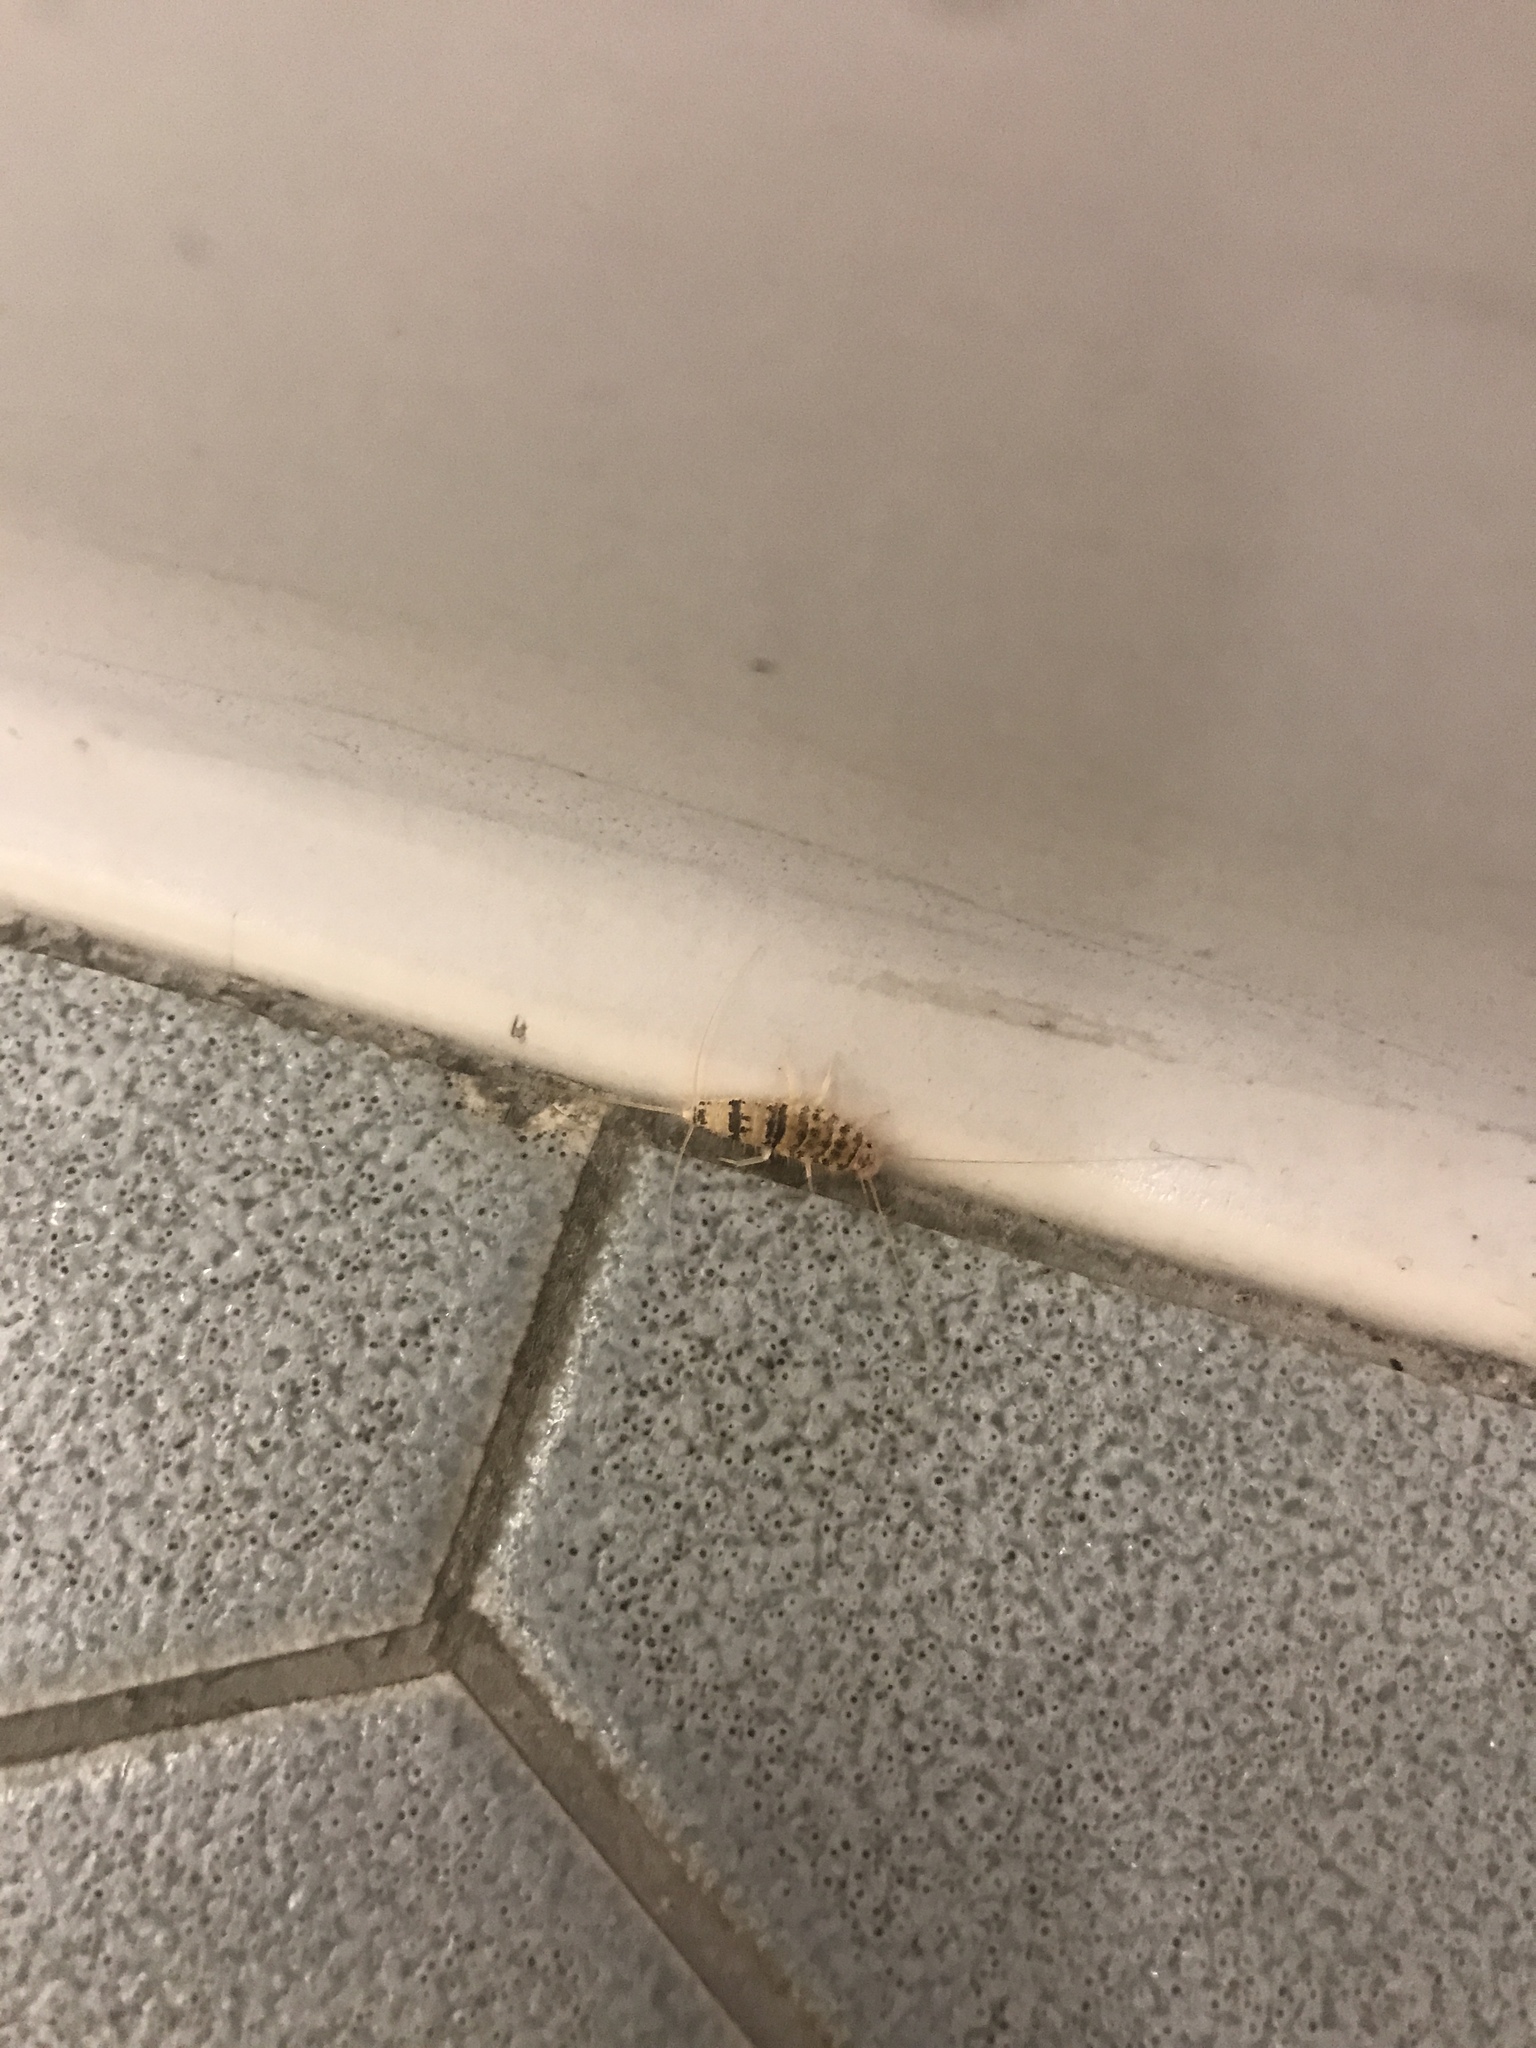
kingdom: Animalia
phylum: Arthropoda
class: Insecta
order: Zygentoma
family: Lepismatidae
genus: Thermobia
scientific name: Thermobia domestica
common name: Firebrat
